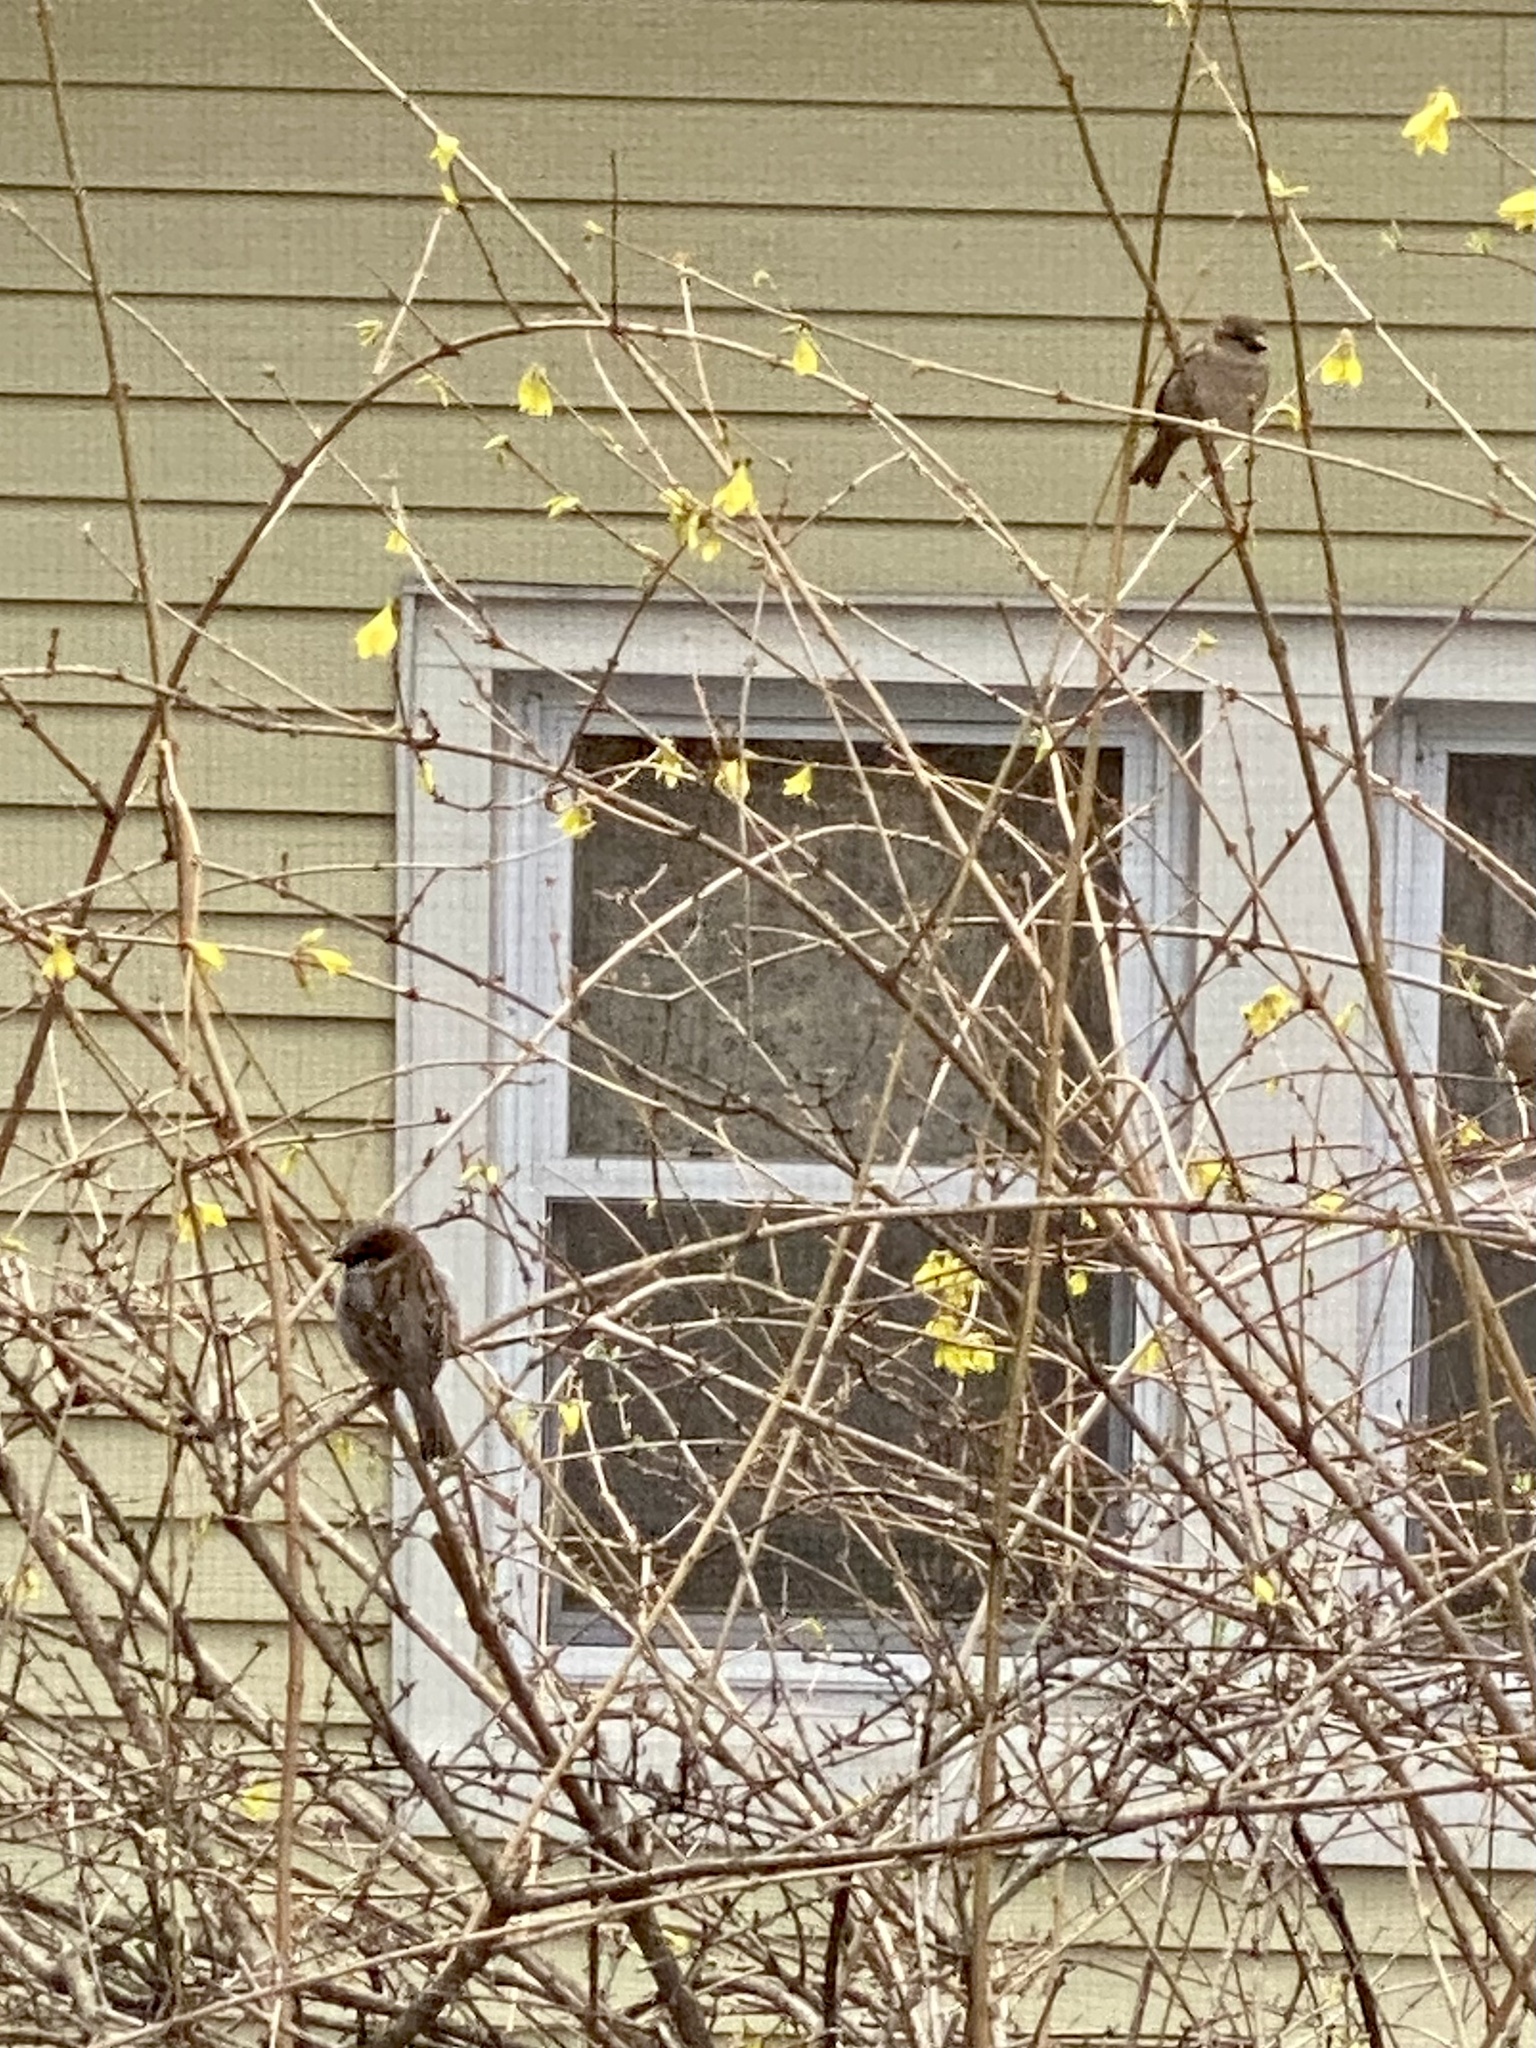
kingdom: Animalia
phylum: Chordata
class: Aves
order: Passeriformes
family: Passeridae
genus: Passer
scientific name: Passer domesticus
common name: House sparrow
